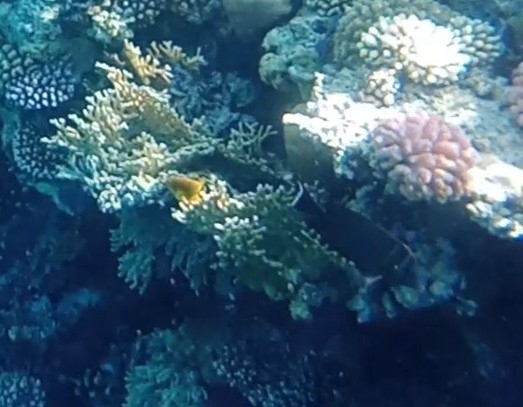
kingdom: Animalia
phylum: Chordata
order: Perciformes
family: Acanthuridae
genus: Zebrasoma
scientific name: Zebrasoma desjardinii
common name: Desjardin's sailfin tang
